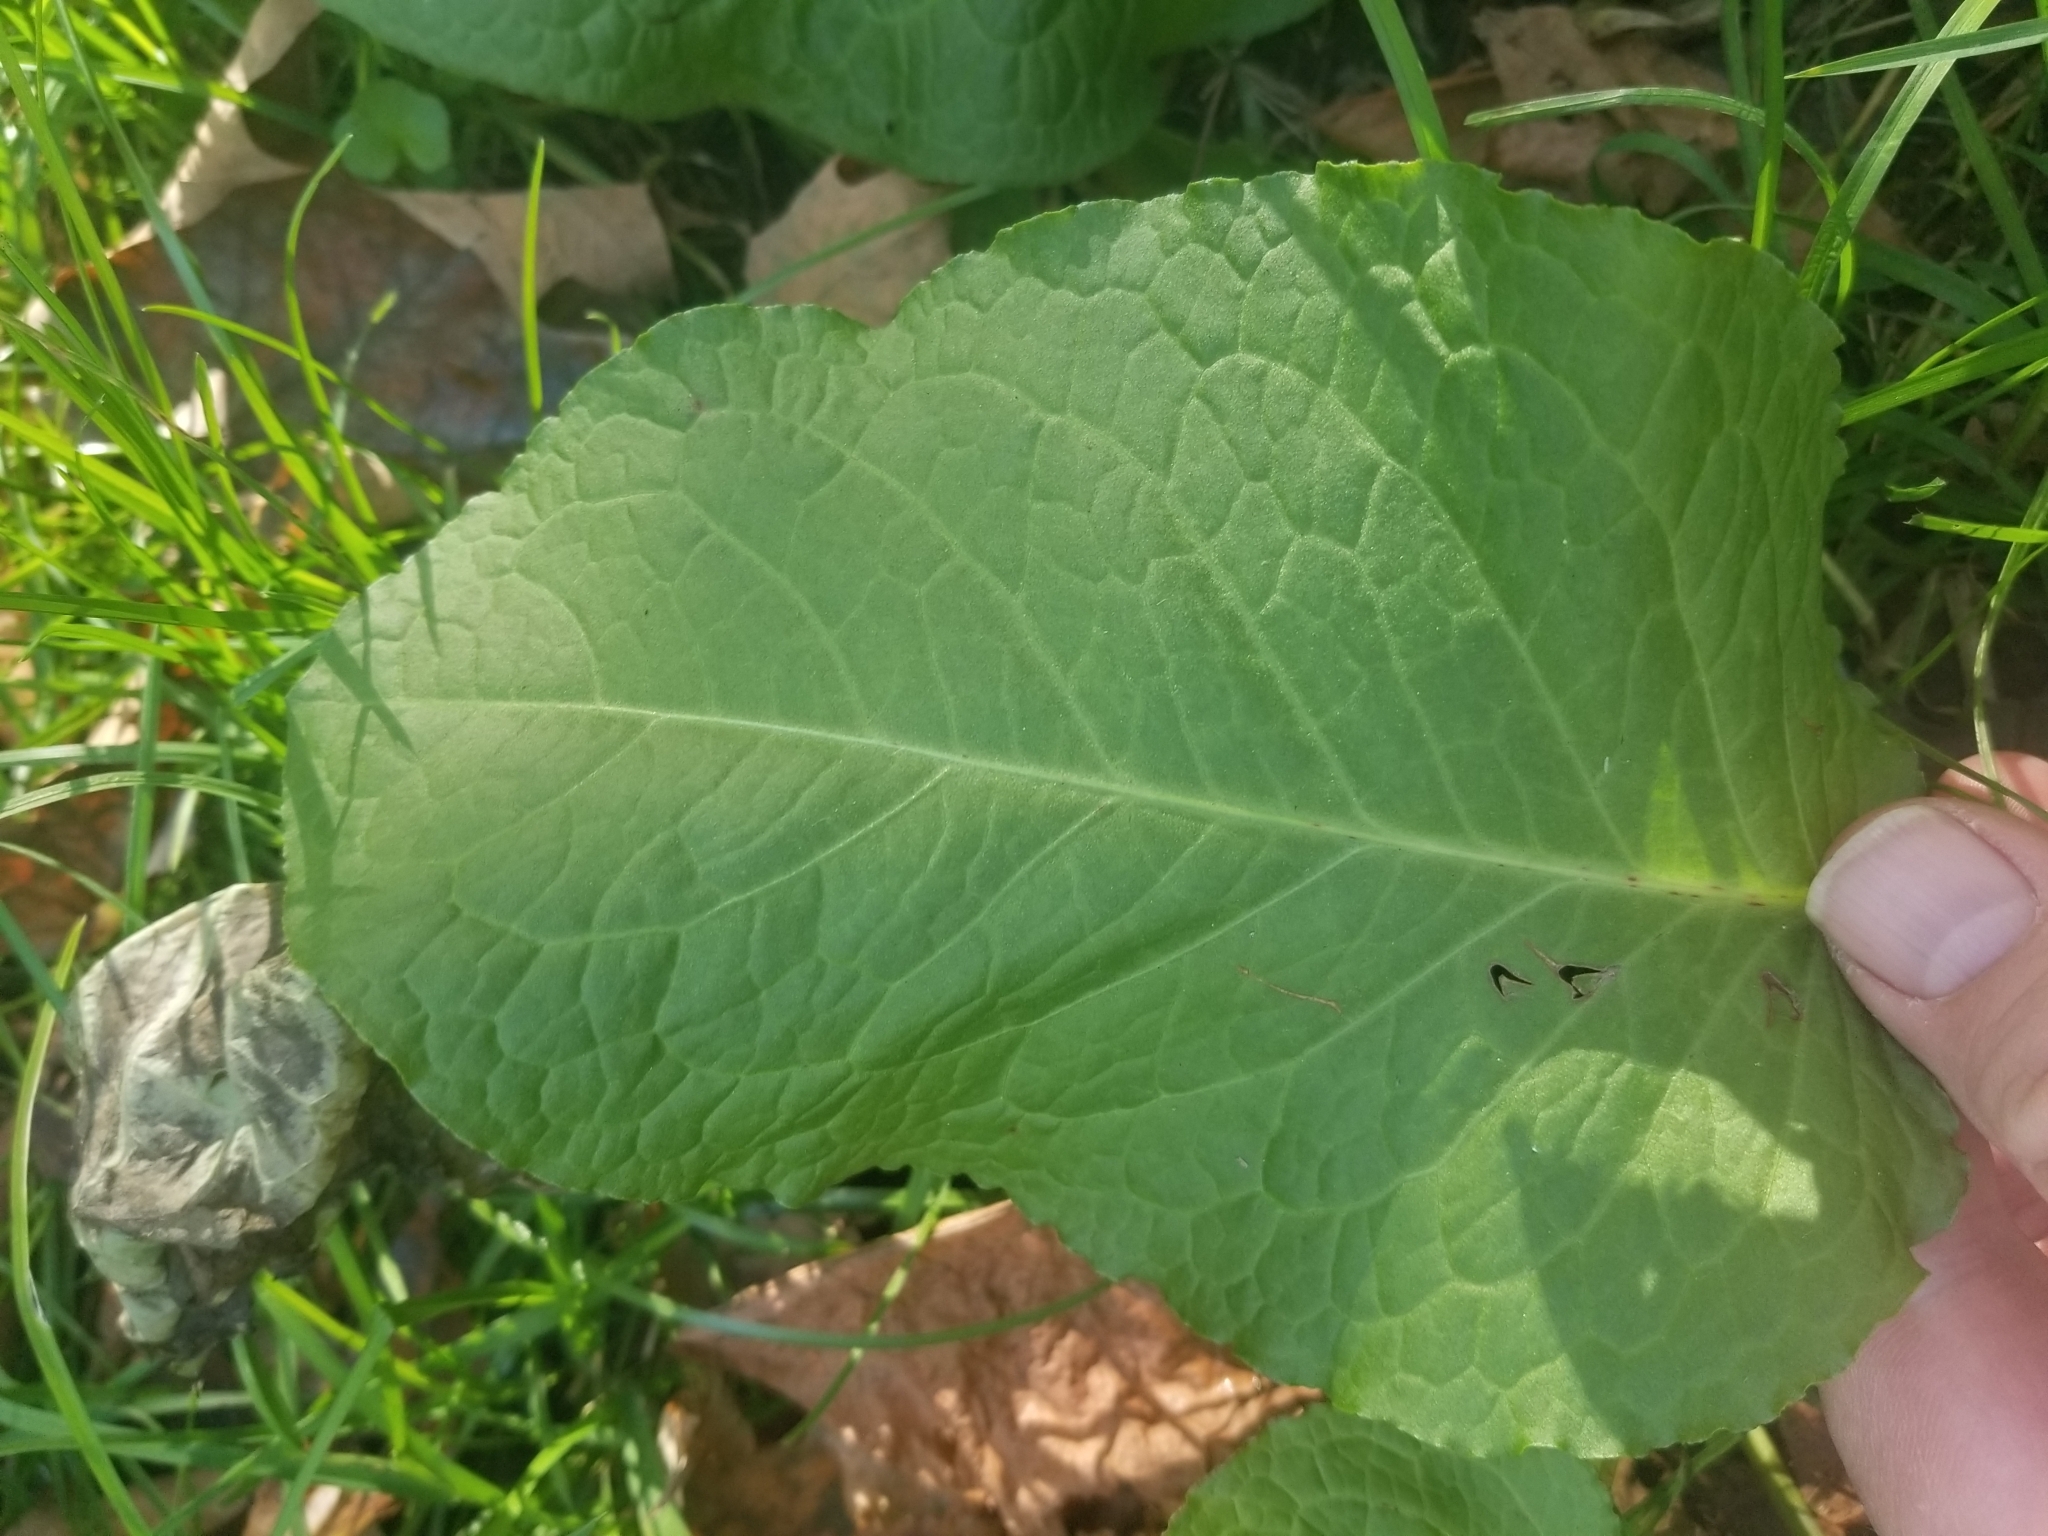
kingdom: Plantae
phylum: Tracheophyta
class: Magnoliopsida
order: Caryophyllales
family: Polygonaceae
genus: Rumex
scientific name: Rumex obtusifolius
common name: Bitter dock
